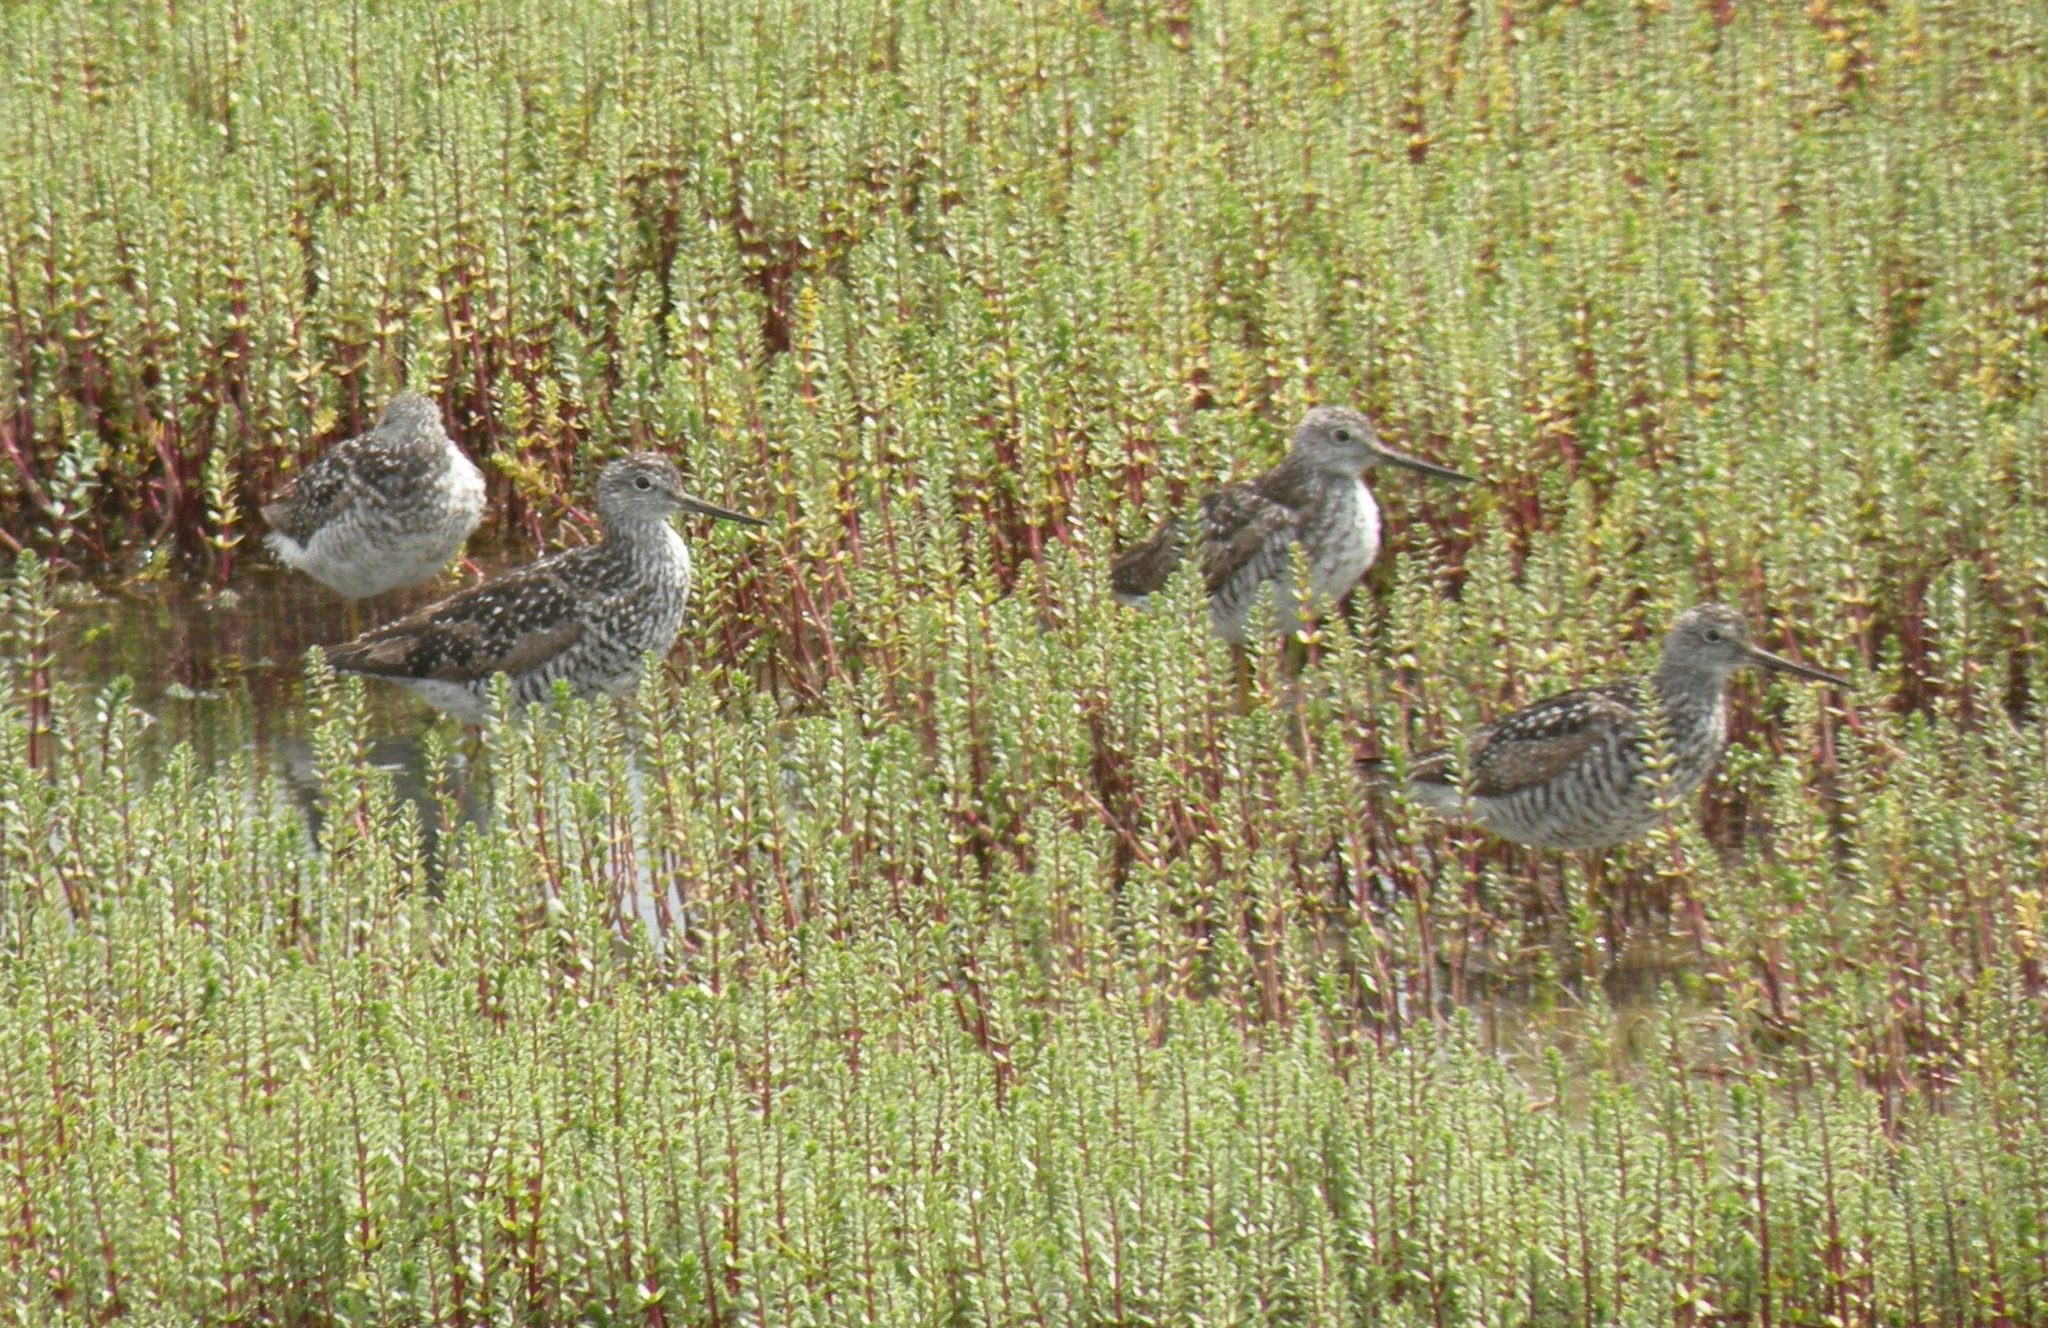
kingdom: Animalia
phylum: Chordata
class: Aves
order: Charadriiformes
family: Scolopacidae
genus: Tringa
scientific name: Tringa melanoleuca
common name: Greater yellowlegs
